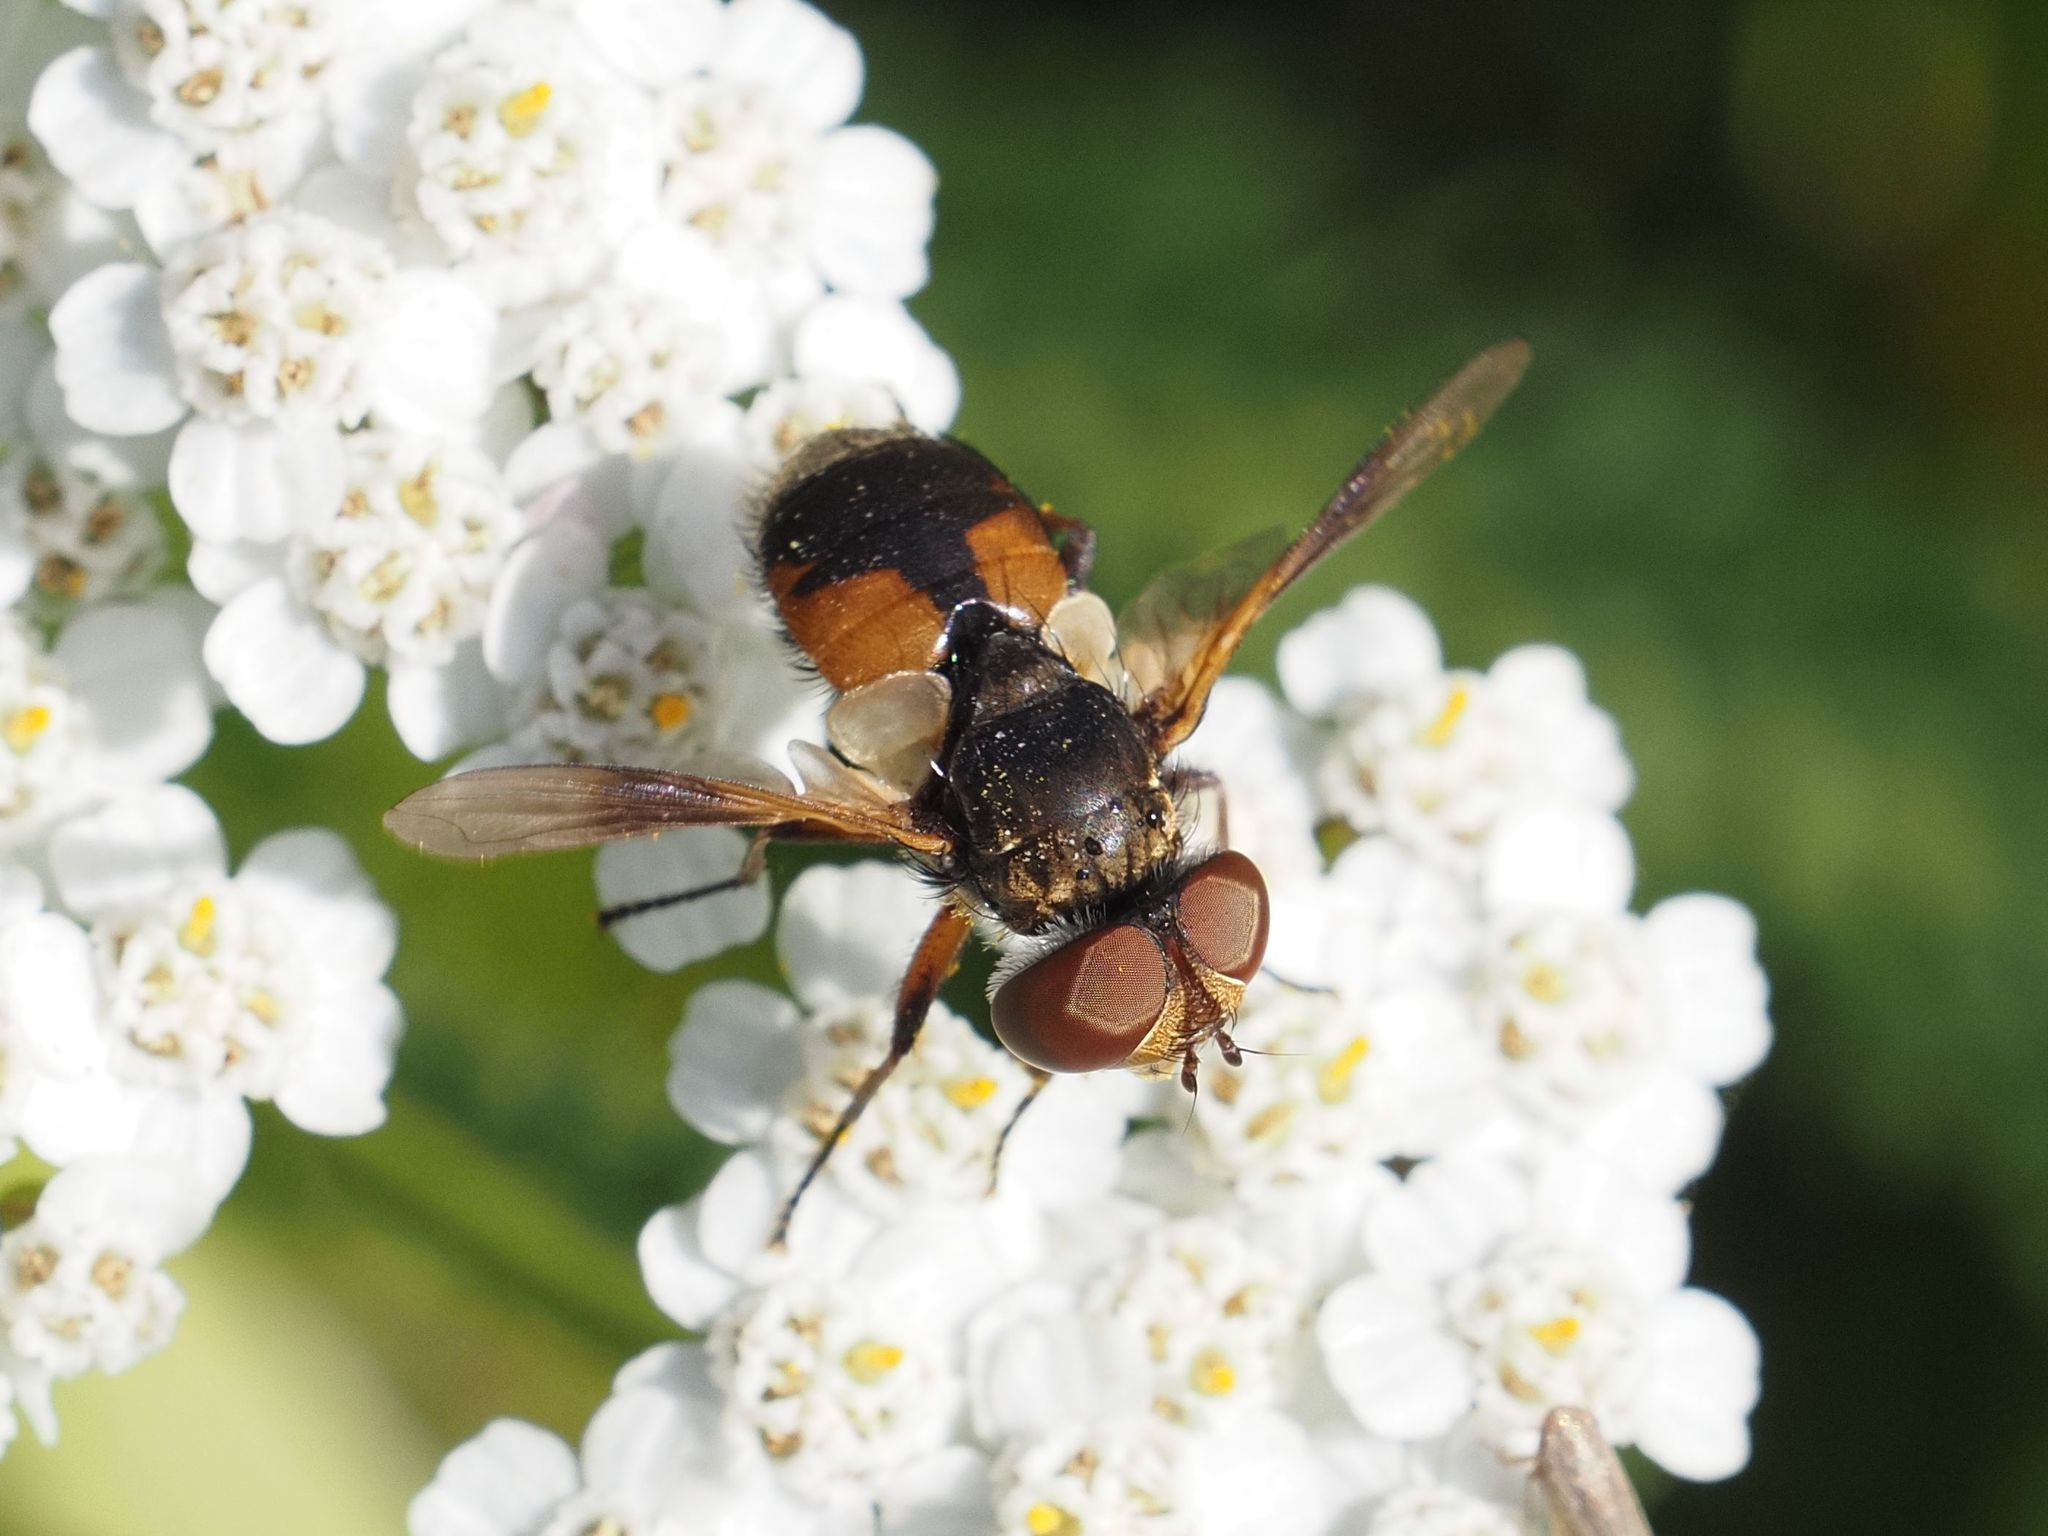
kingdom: Animalia
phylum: Arthropoda
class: Insecta
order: Diptera
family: Tachinidae
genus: Ectophasia
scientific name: Ectophasia crassipennis
